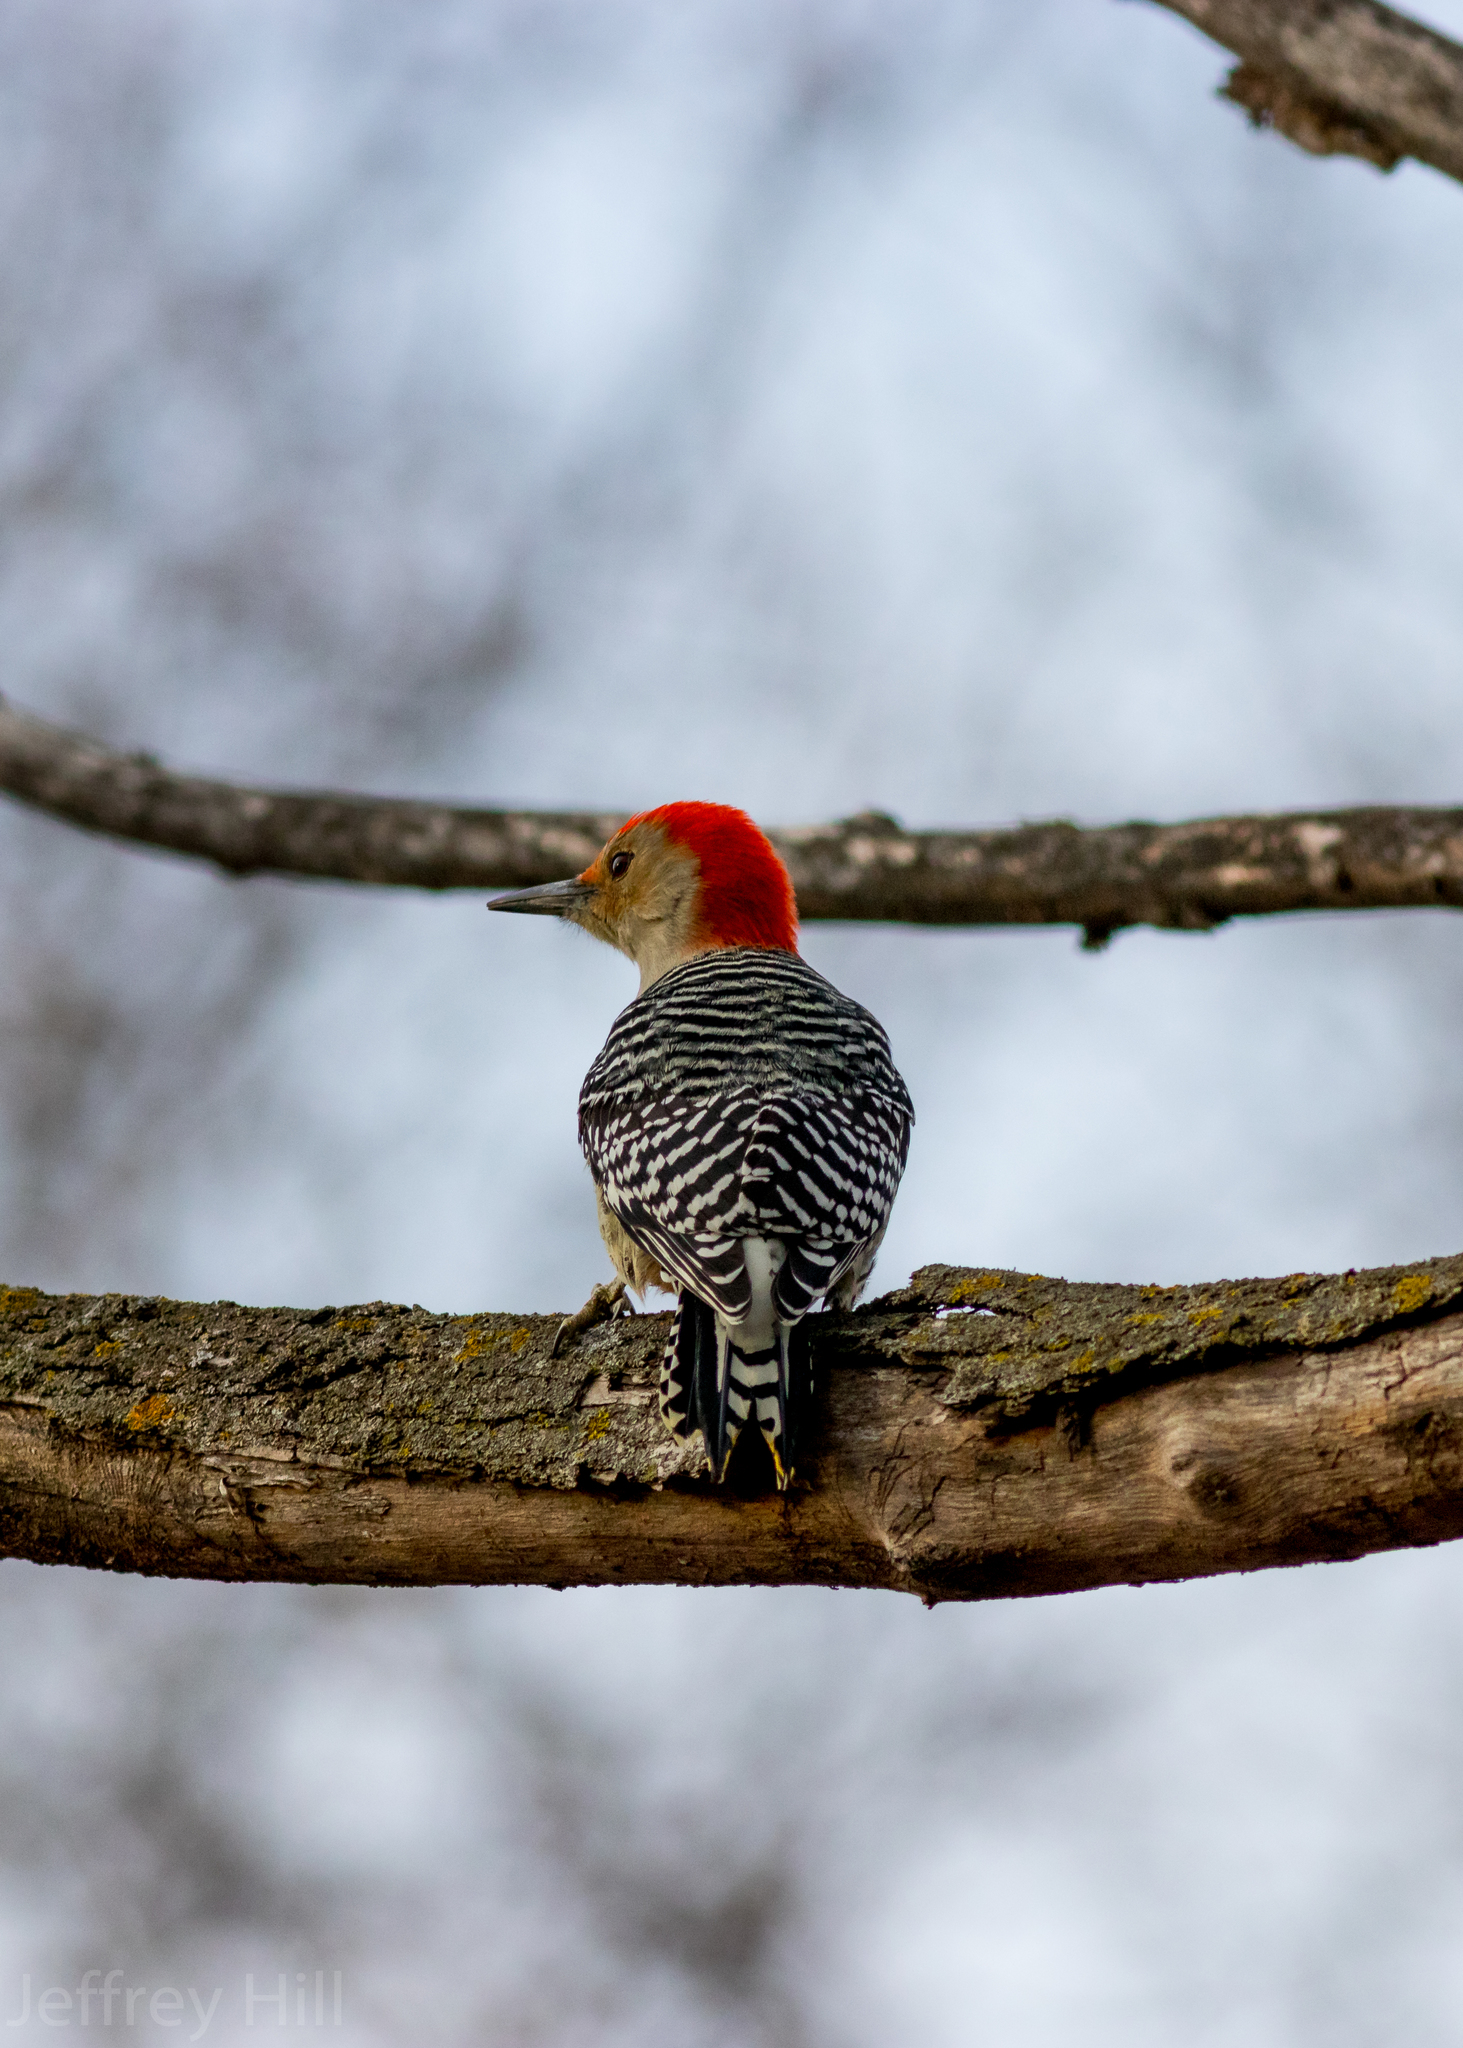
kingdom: Animalia
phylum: Chordata
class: Aves
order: Piciformes
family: Picidae
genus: Melanerpes
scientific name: Melanerpes carolinus
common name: Red-bellied woodpecker
